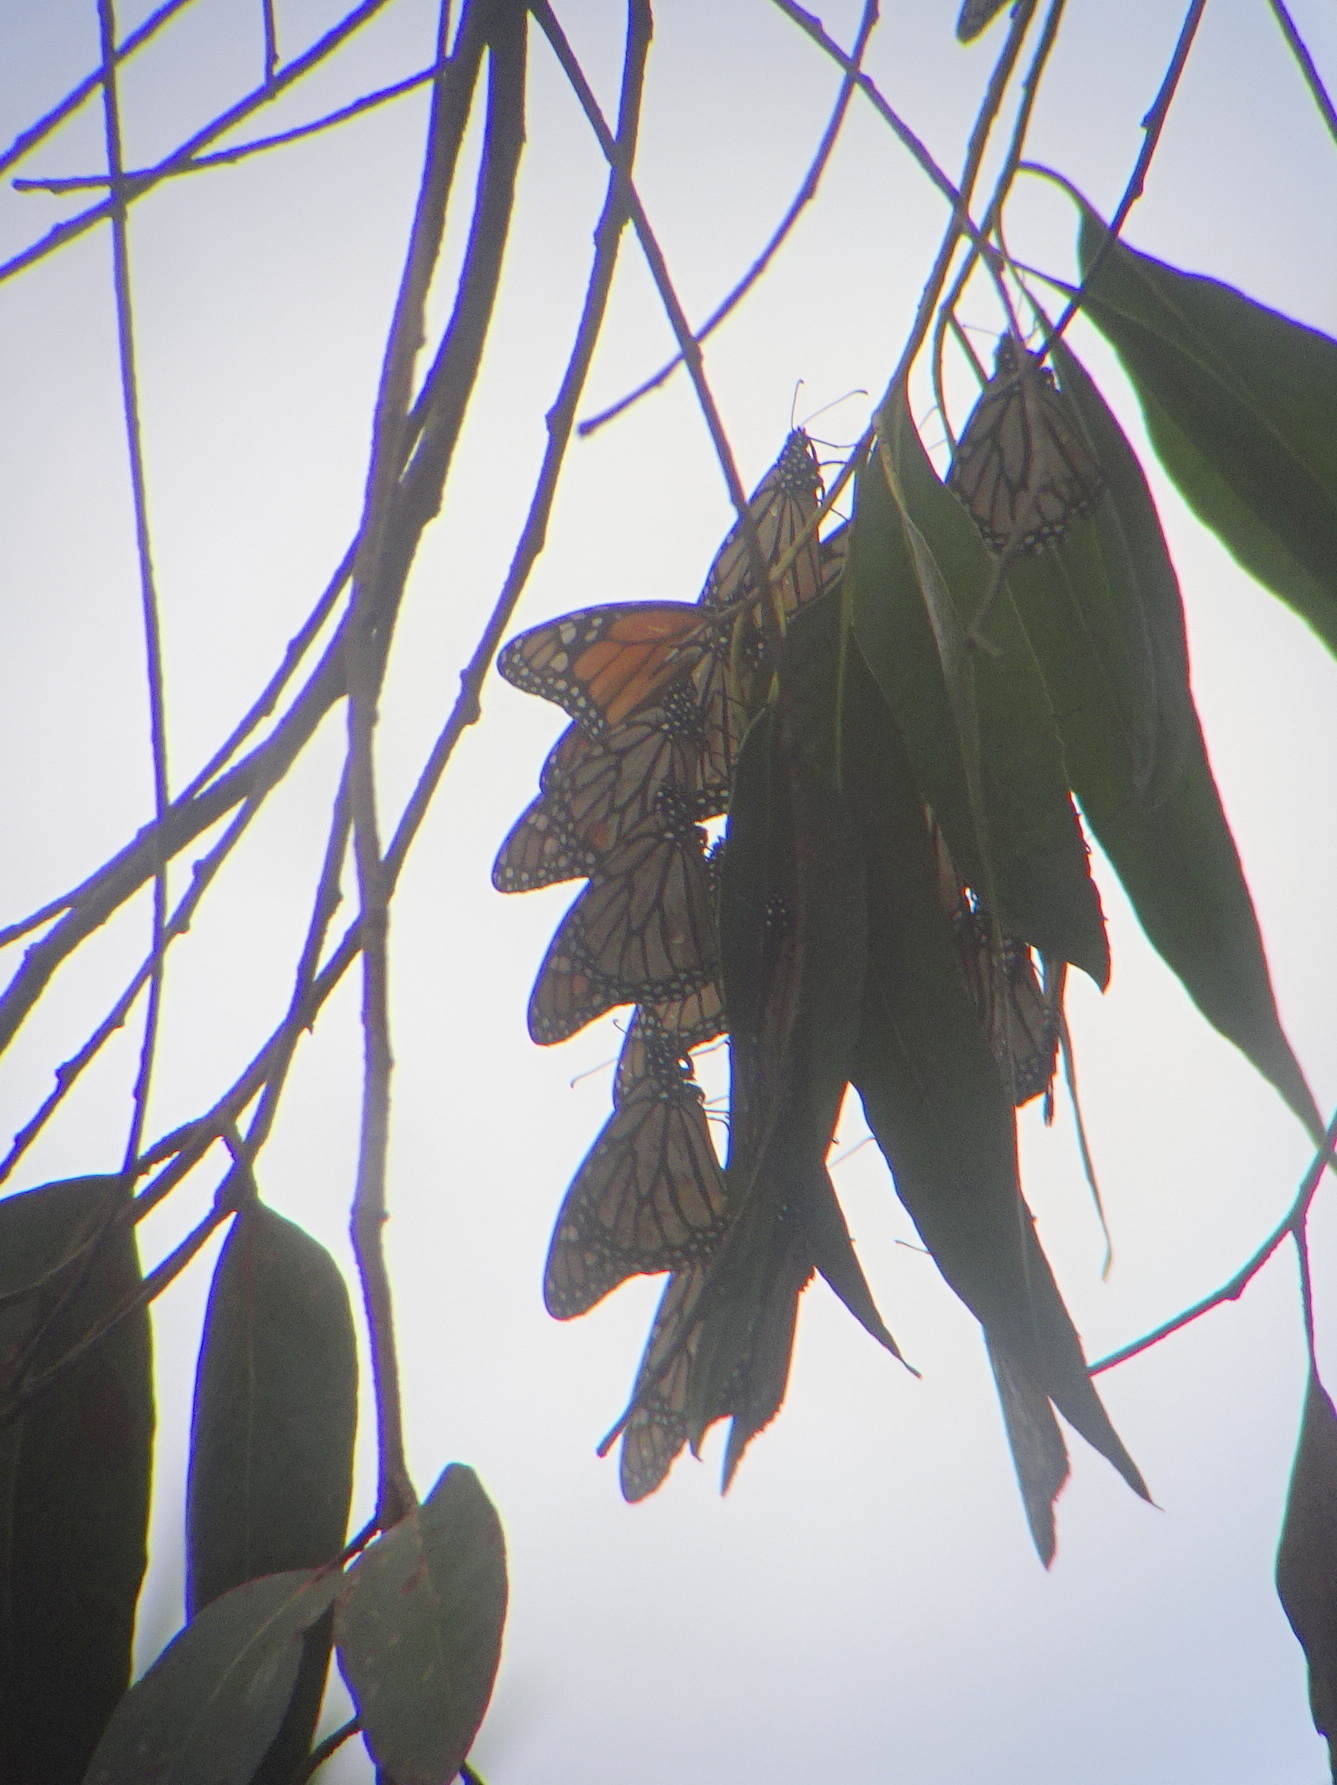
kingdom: Animalia
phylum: Arthropoda
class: Insecta
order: Lepidoptera
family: Nymphalidae
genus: Danaus
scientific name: Danaus plexippus
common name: Monarch
